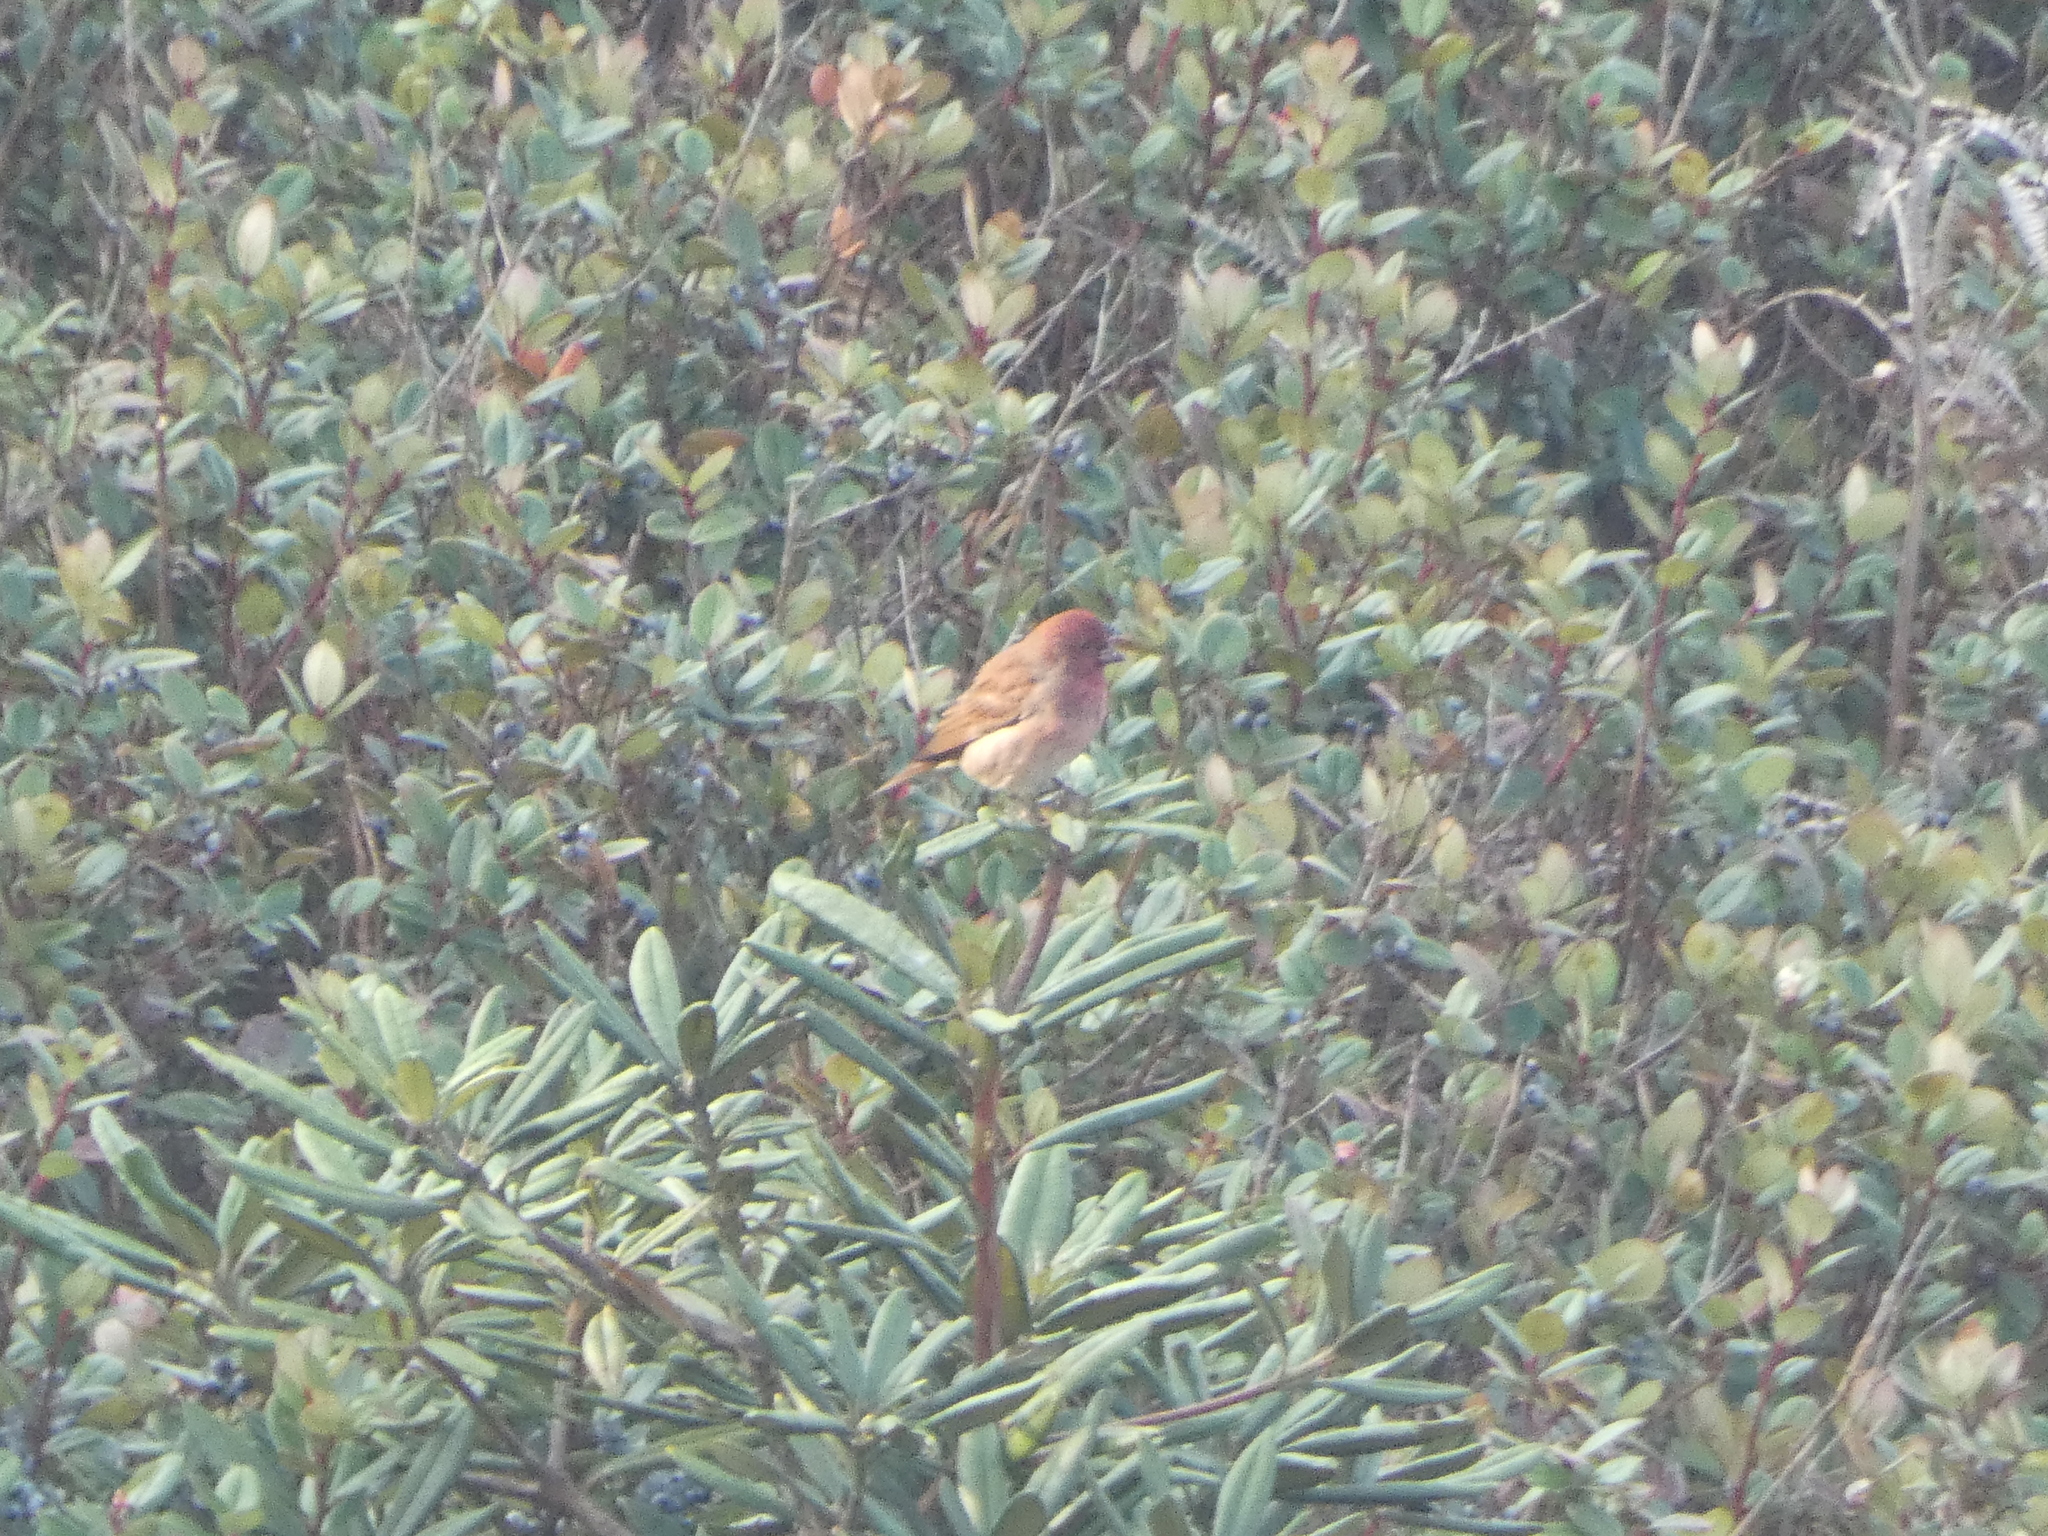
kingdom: Animalia
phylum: Chordata
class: Aves
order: Passeriformes
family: Fringillidae
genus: Carpodacus
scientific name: Carpodacus erythrinus
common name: Common rosefinch
